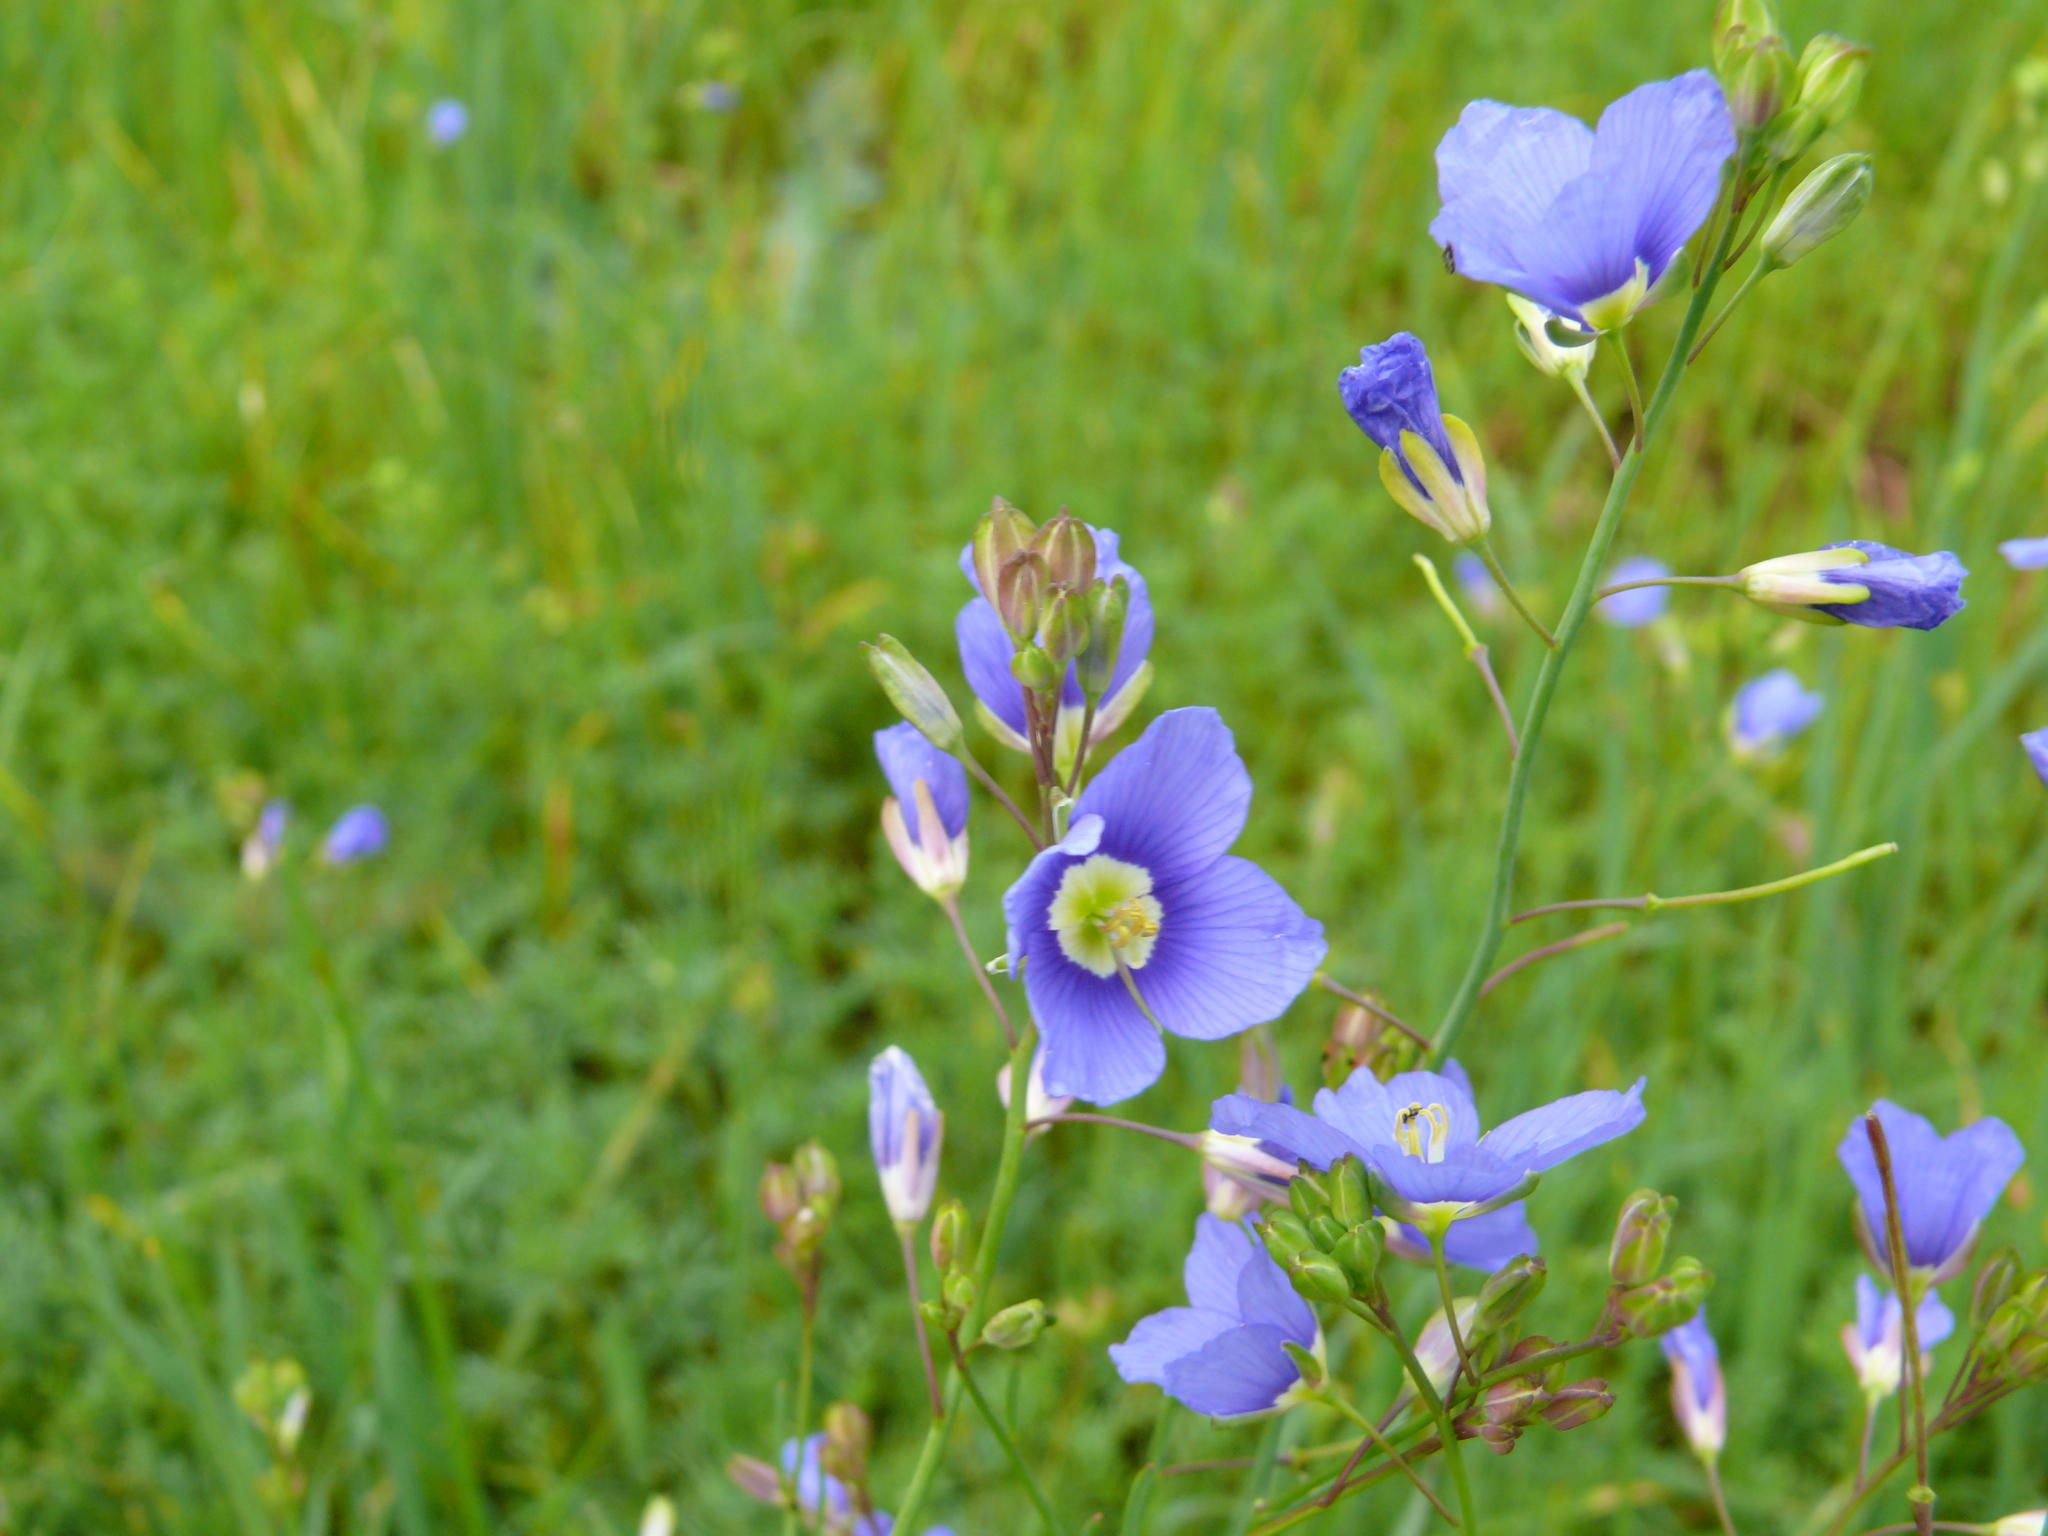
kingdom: Plantae
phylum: Tracheophyta
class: Magnoliopsida
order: Brassicales
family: Brassicaceae
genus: Heliophila
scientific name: Heliophila coronopifolia
